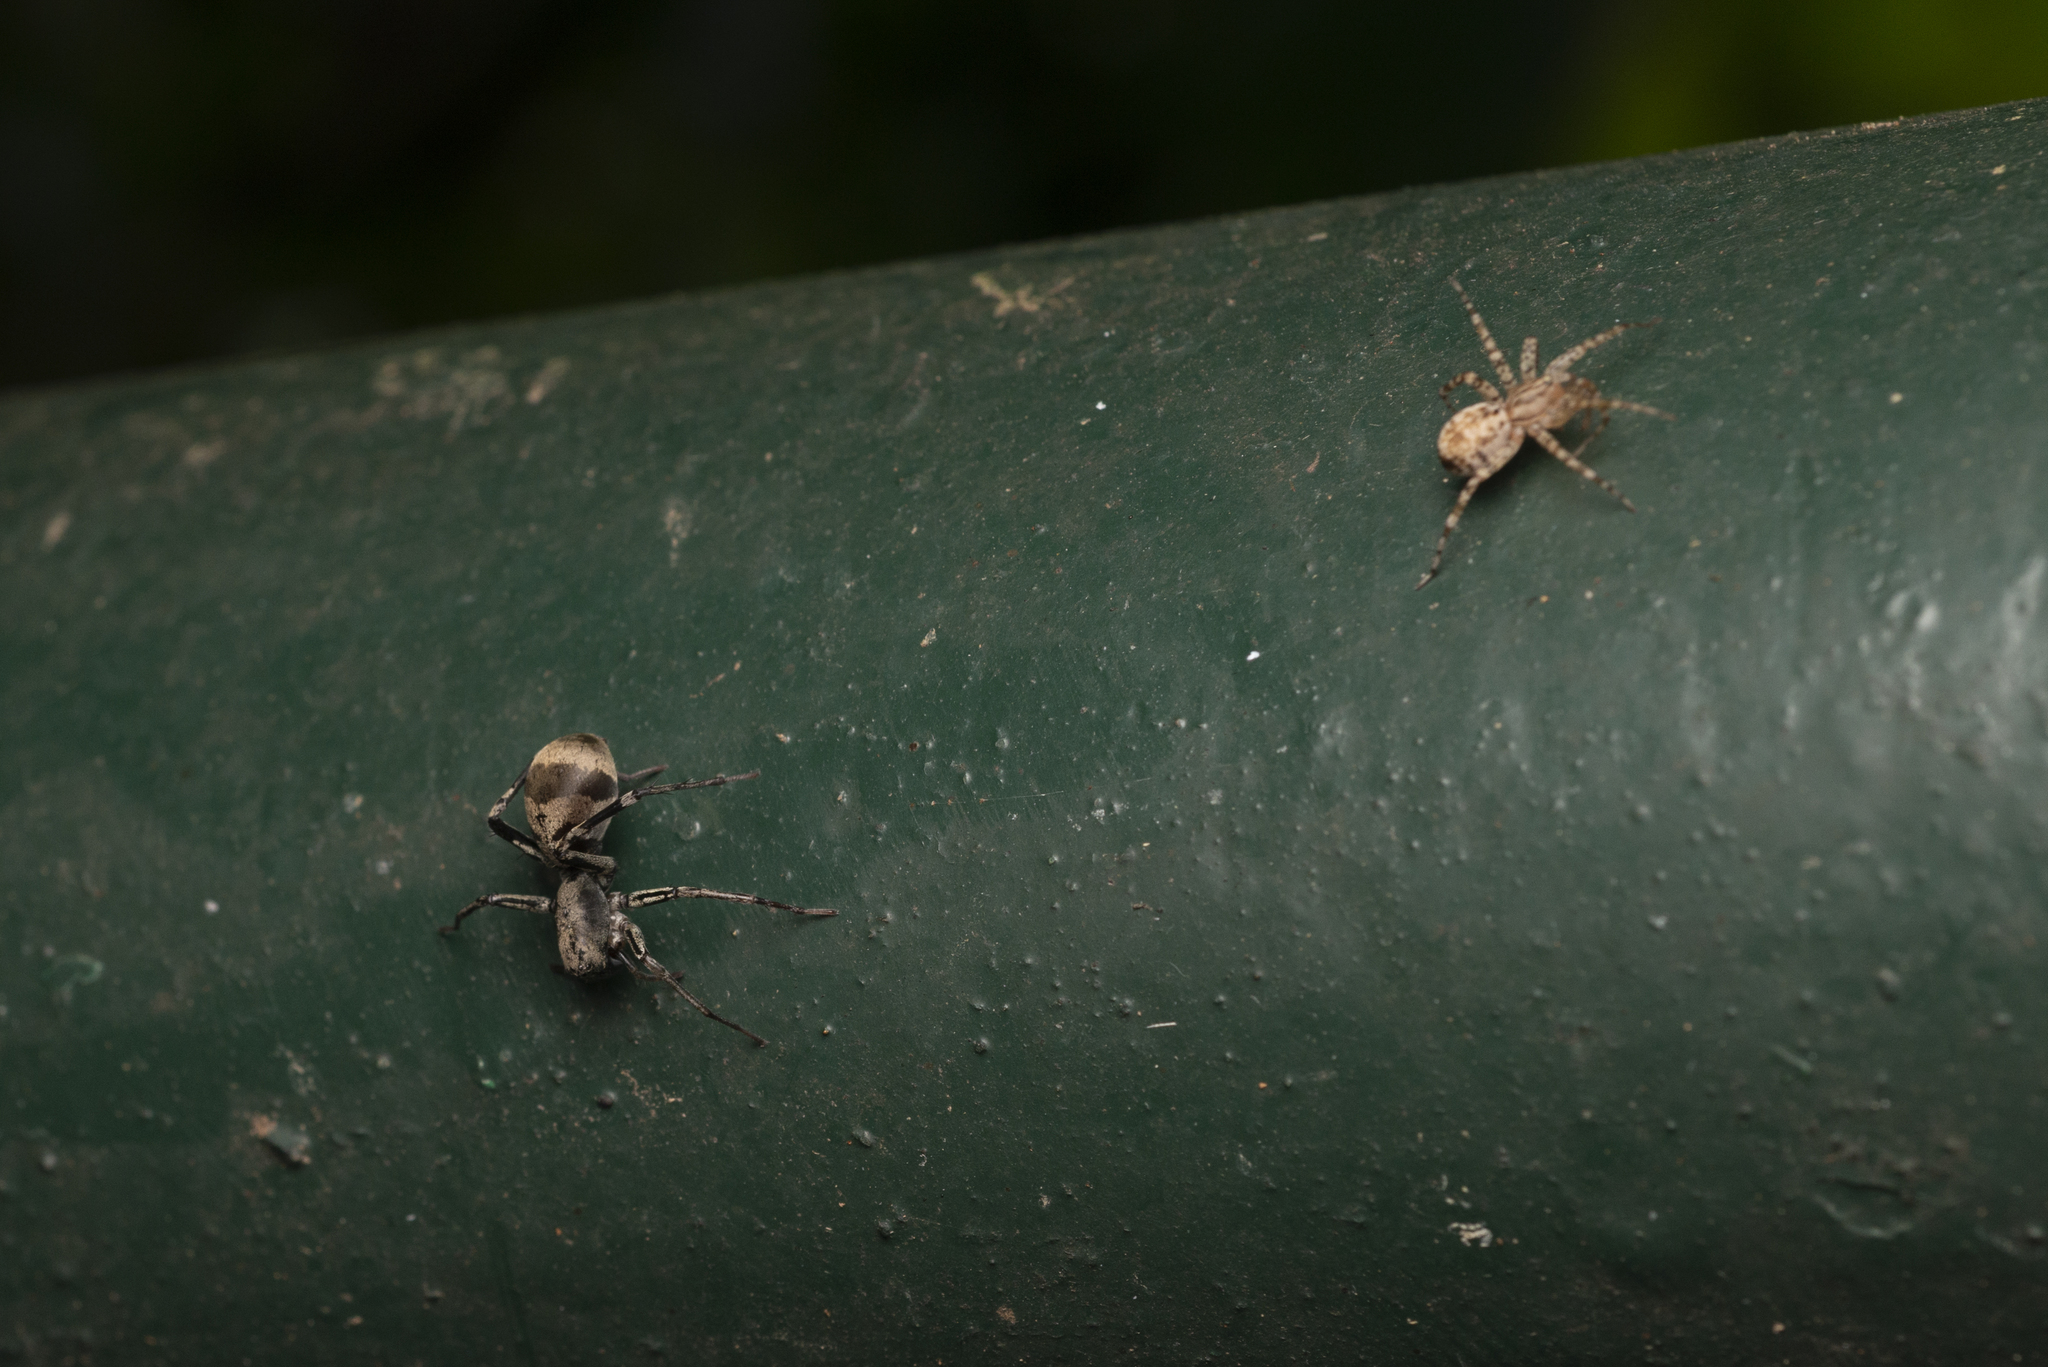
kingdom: Animalia
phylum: Arthropoda
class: Arachnida
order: Araneae
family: Corinnidae
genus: Corinnomma
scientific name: Corinnomma severum
